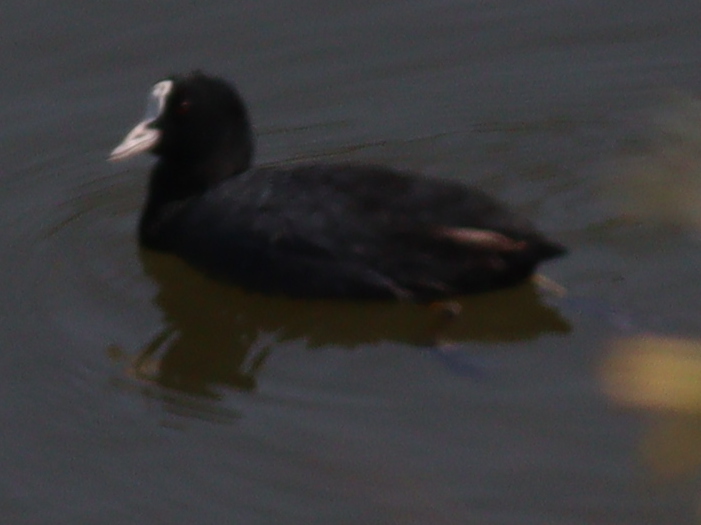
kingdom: Animalia
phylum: Chordata
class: Aves
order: Gruiformes
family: Rallidae
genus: Fulica
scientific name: Fulica atra
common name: Eurasian coot
